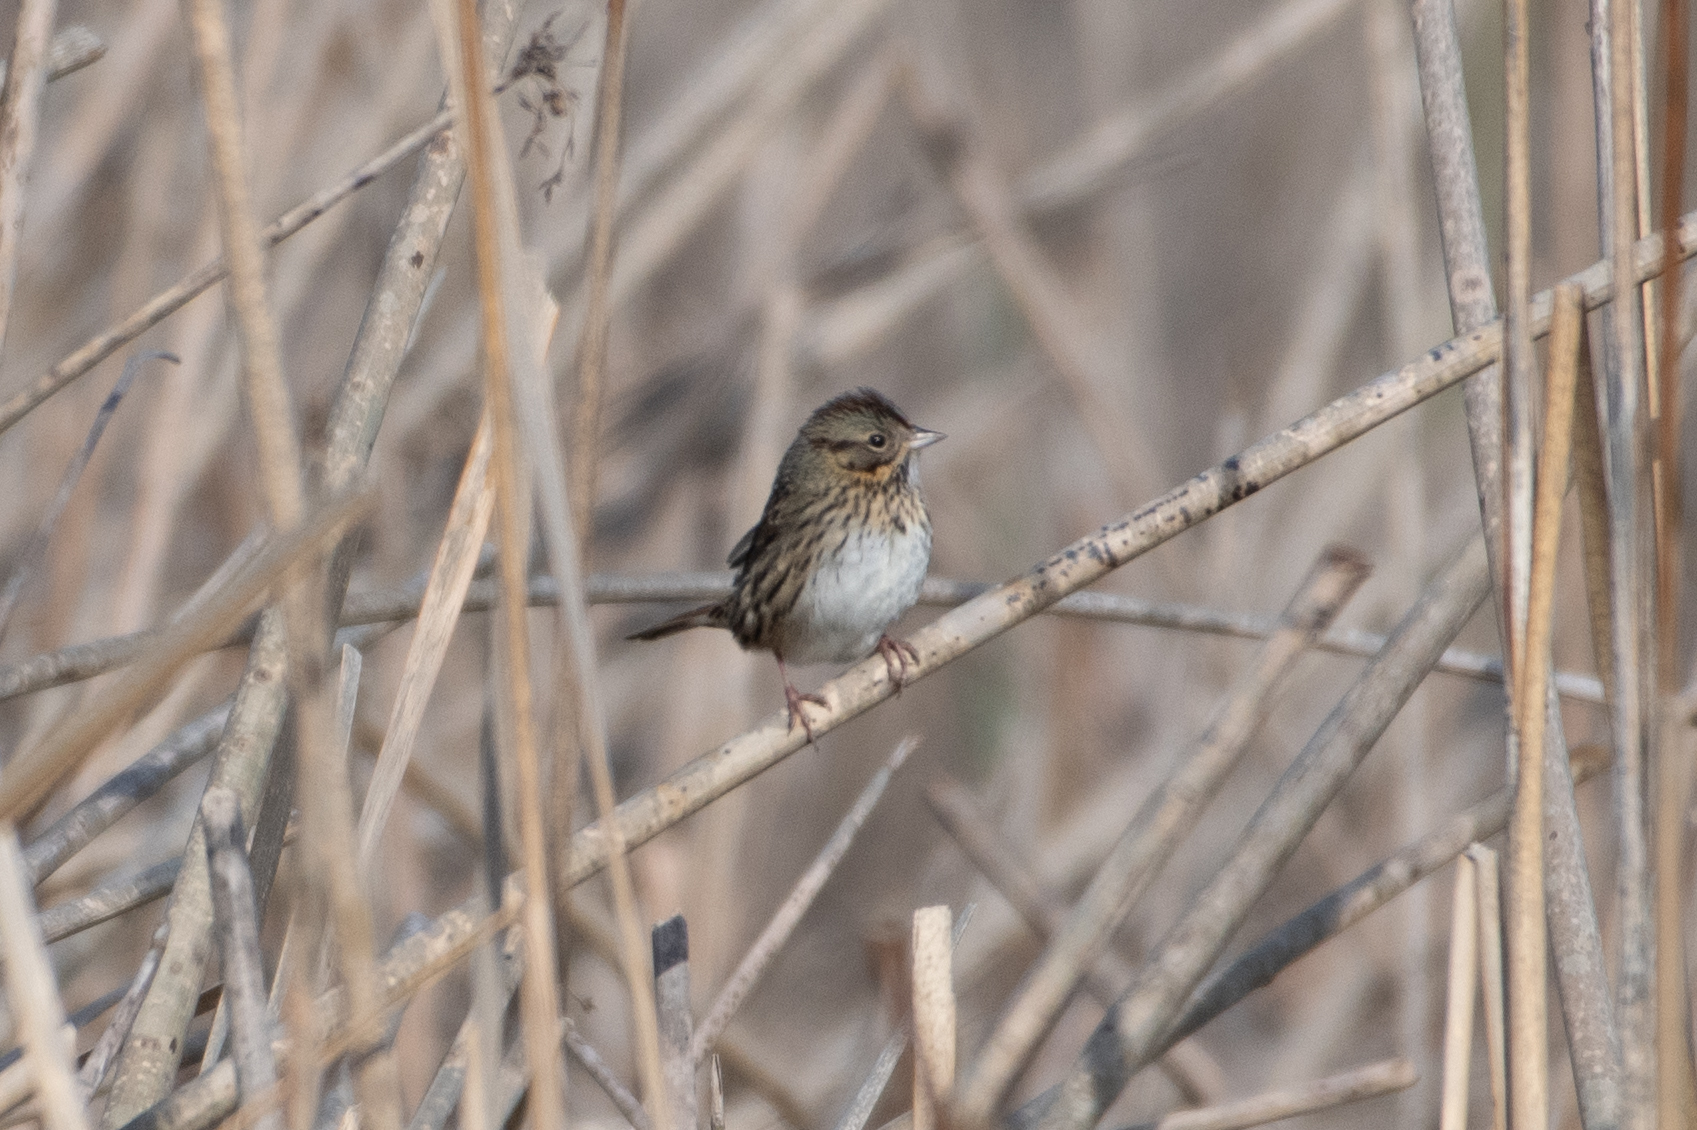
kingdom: Animalia
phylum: Chordata
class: Aves
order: Passeriformes
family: Passerellidae
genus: Melospiza
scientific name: Melospiza lincolnii
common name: Lincoln's sparrow
